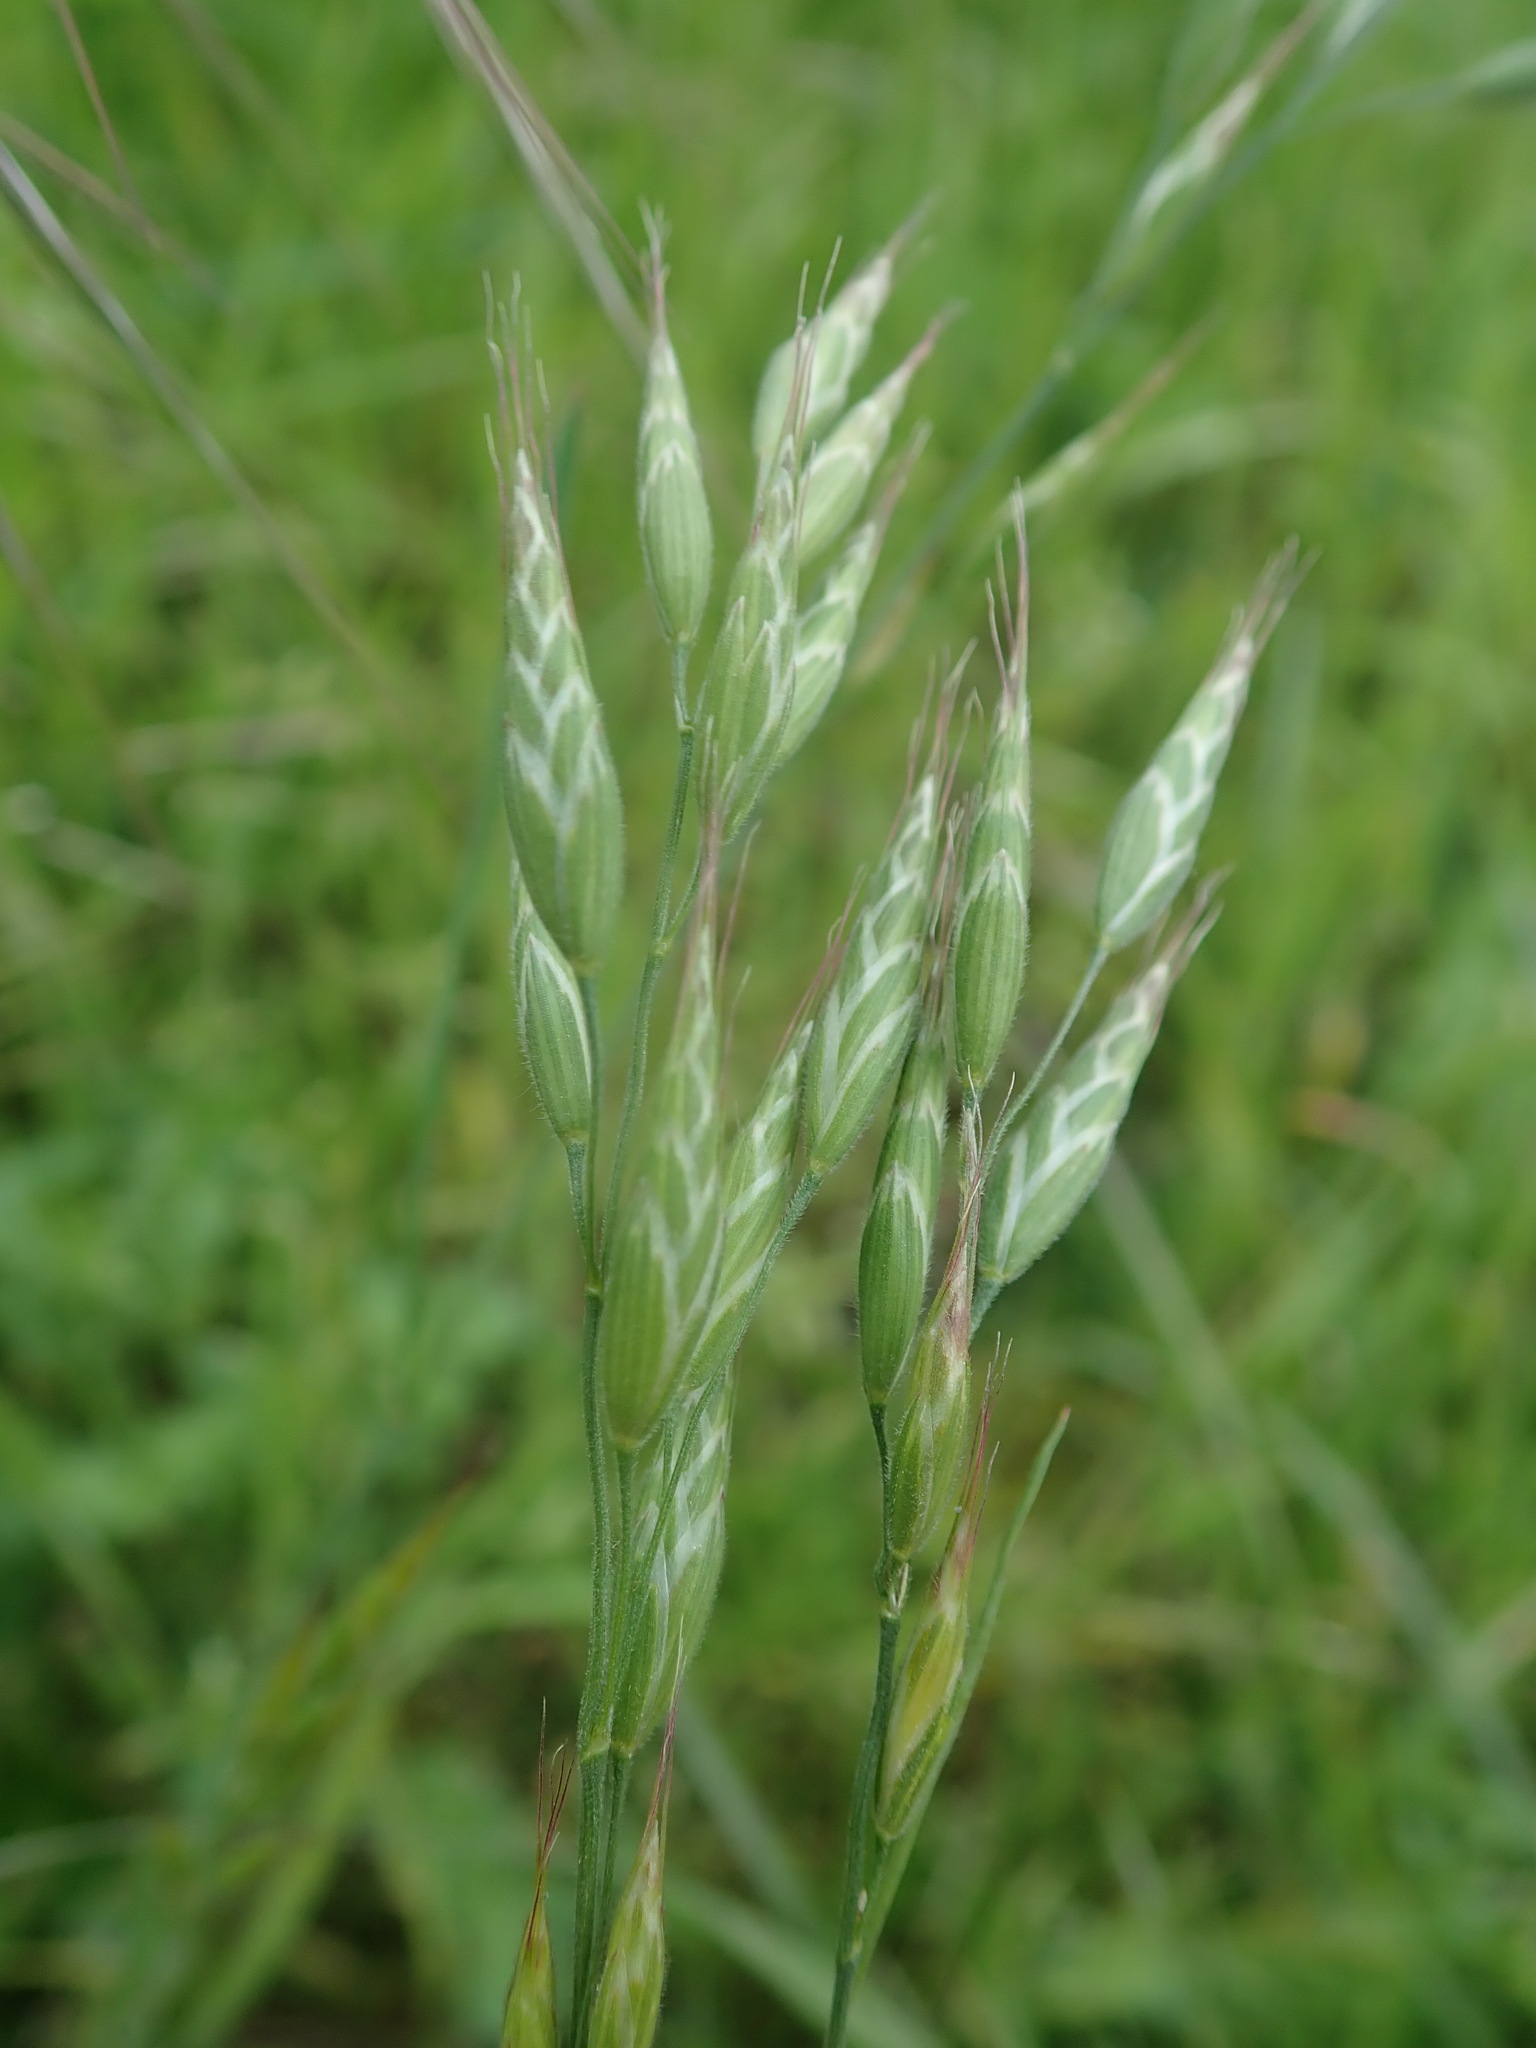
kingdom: Plantae
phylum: Tracheophyta
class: Liliopsida
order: Poales
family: Poaceae
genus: Bromus
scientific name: Bromus hordeaceus
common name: Soft brome
